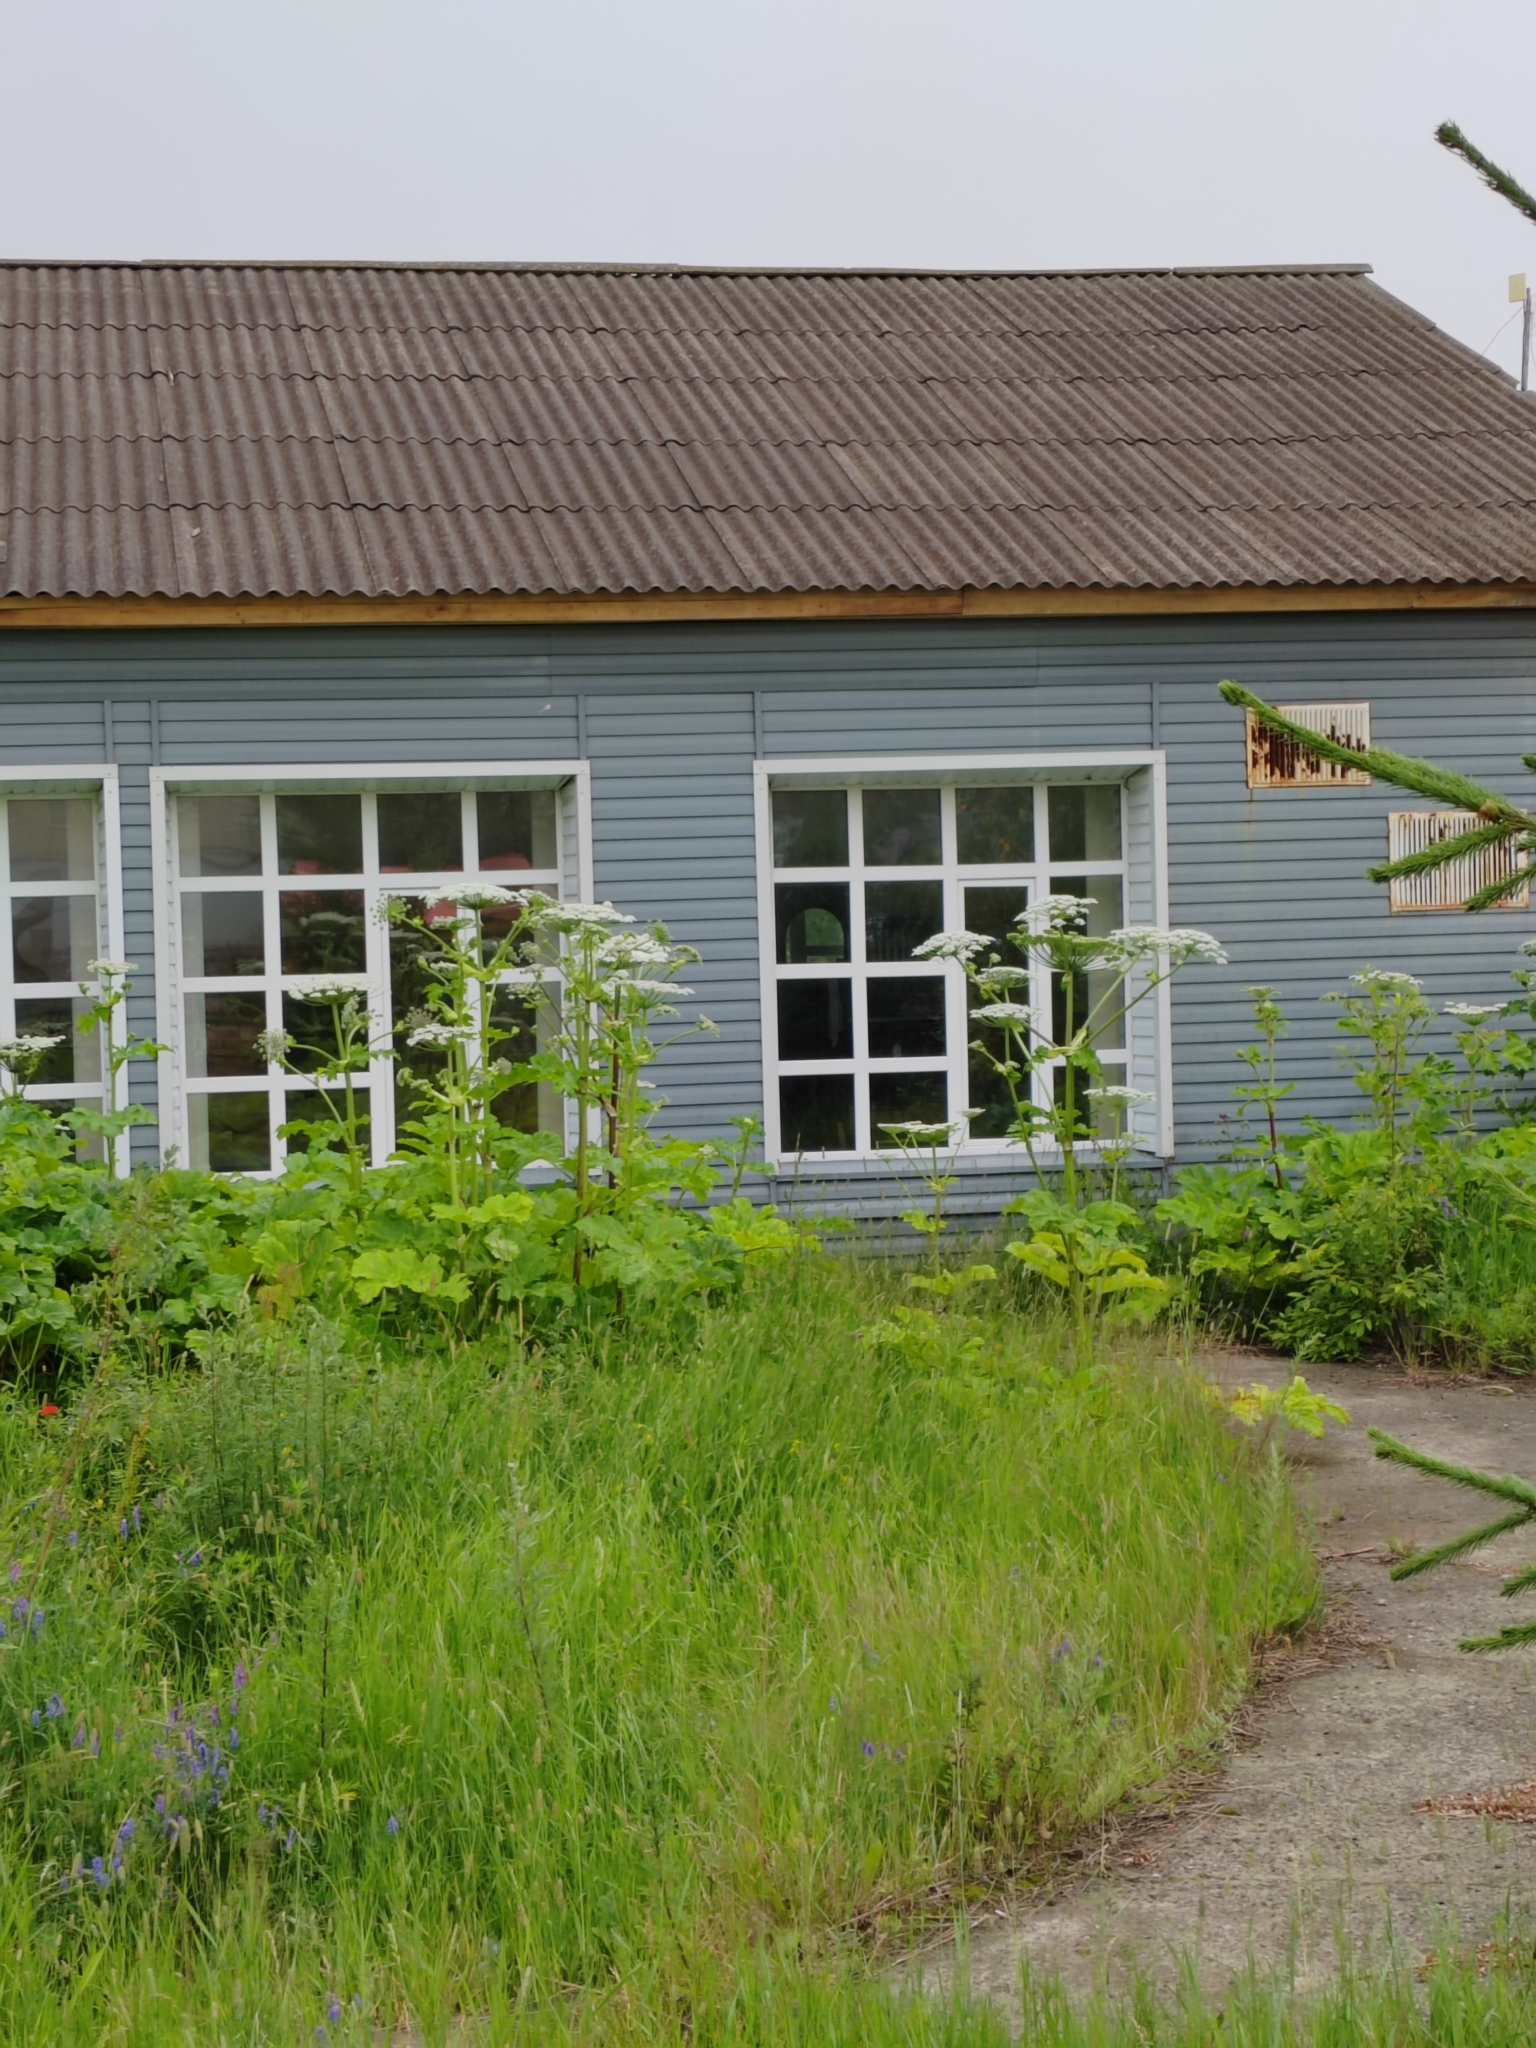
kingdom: Plantae
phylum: Tracheophyta
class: Magnoliopsida
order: Apiales
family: Apiaceae
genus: Heracleum
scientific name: Heracleum sosnowskyi
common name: Sosnowsky's hogweed
